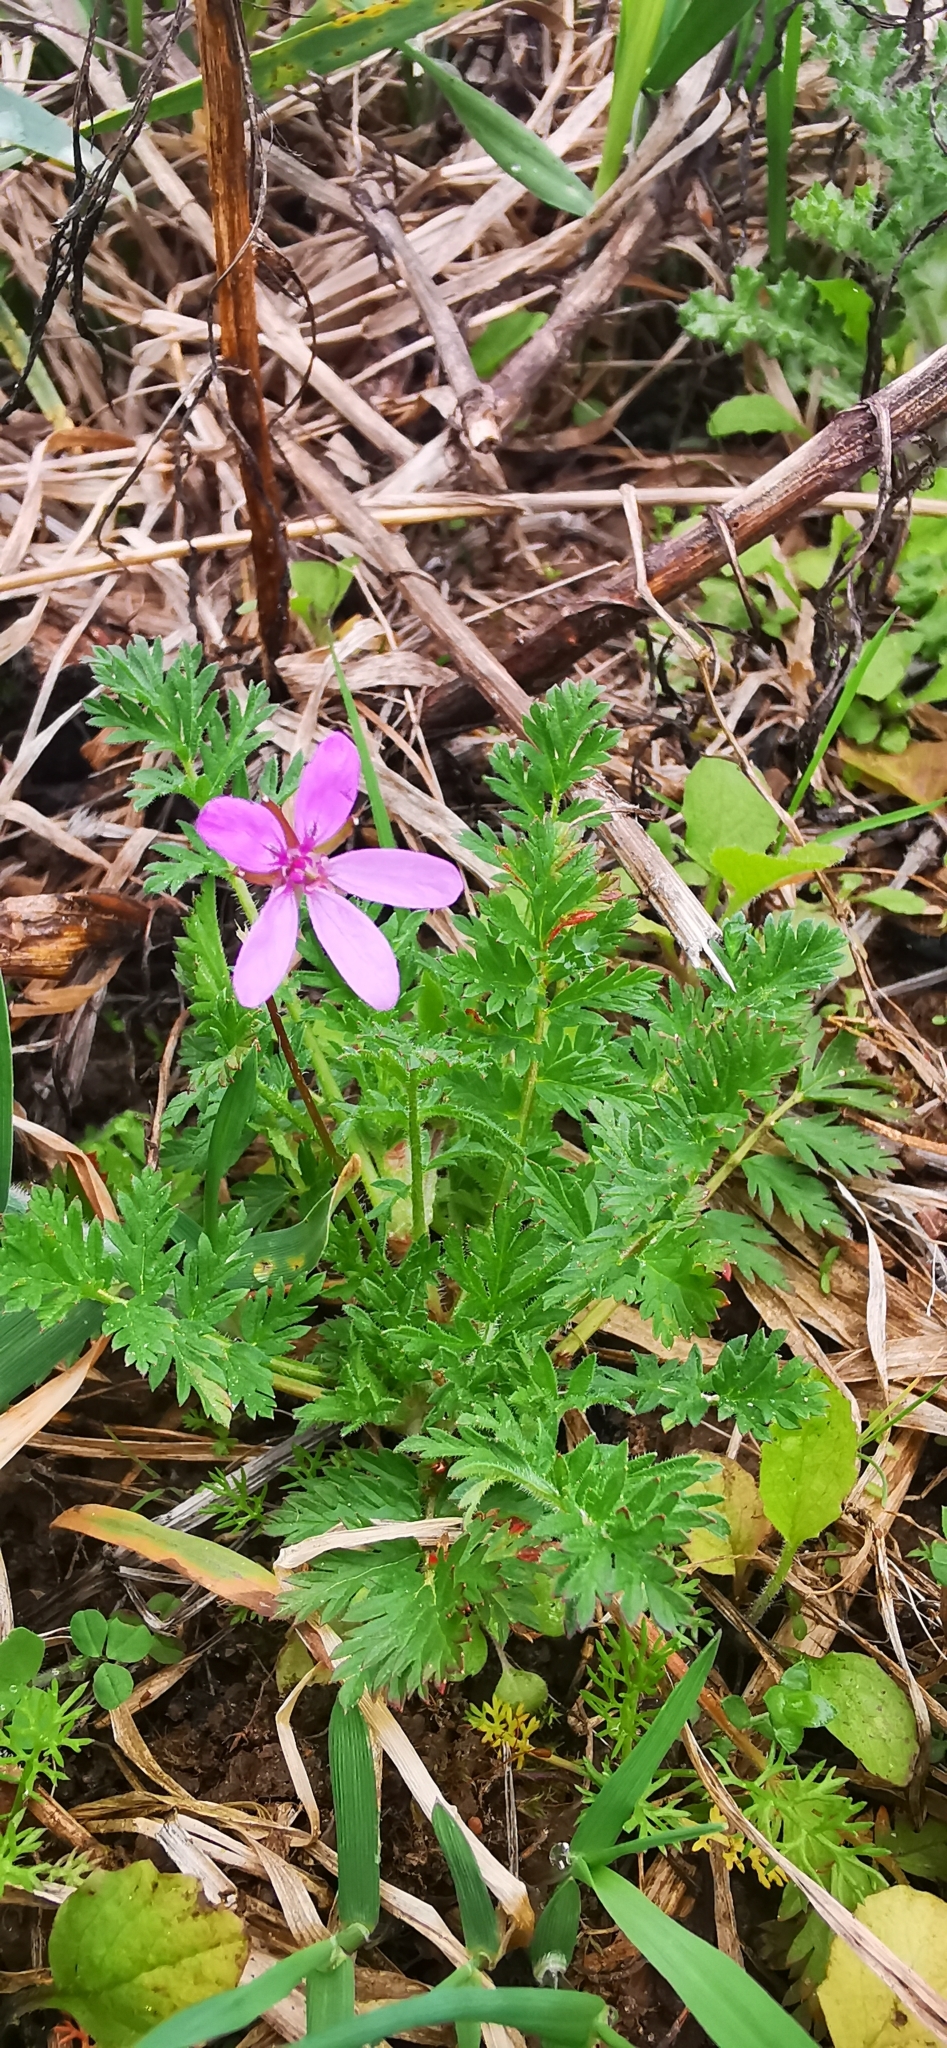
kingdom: Plantae
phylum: Tracheophyta
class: Magnoliopsida
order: Geraniales
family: Geraniaceae
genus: Erodium
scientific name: Erodium cicutarium
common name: Common stork's-bill
